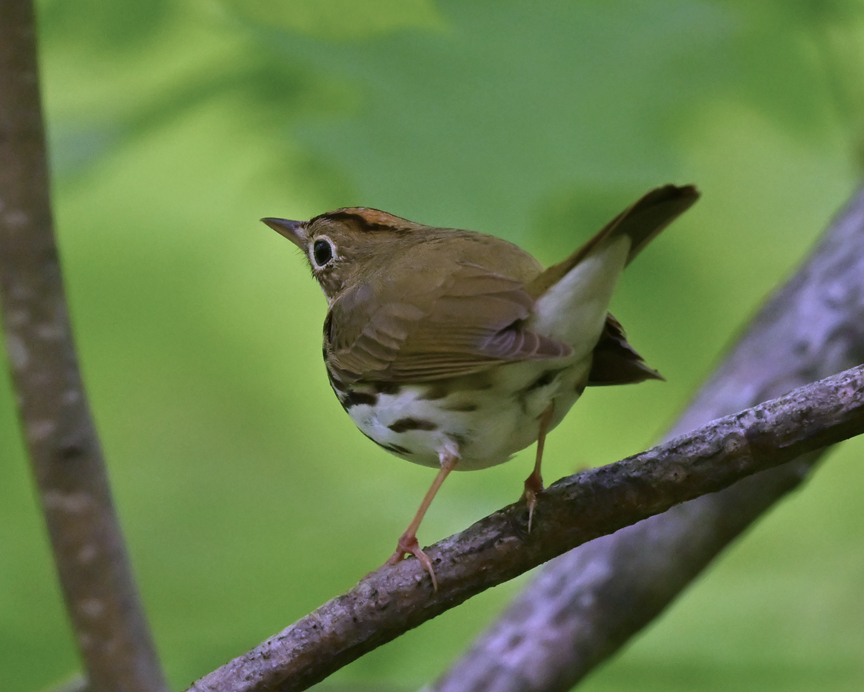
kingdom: Animalia
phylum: Chordata
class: Aves
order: Passeriformes
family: Parulidae
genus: Seiurus
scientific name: Seiurus aurocapilla
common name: Ovenbird
